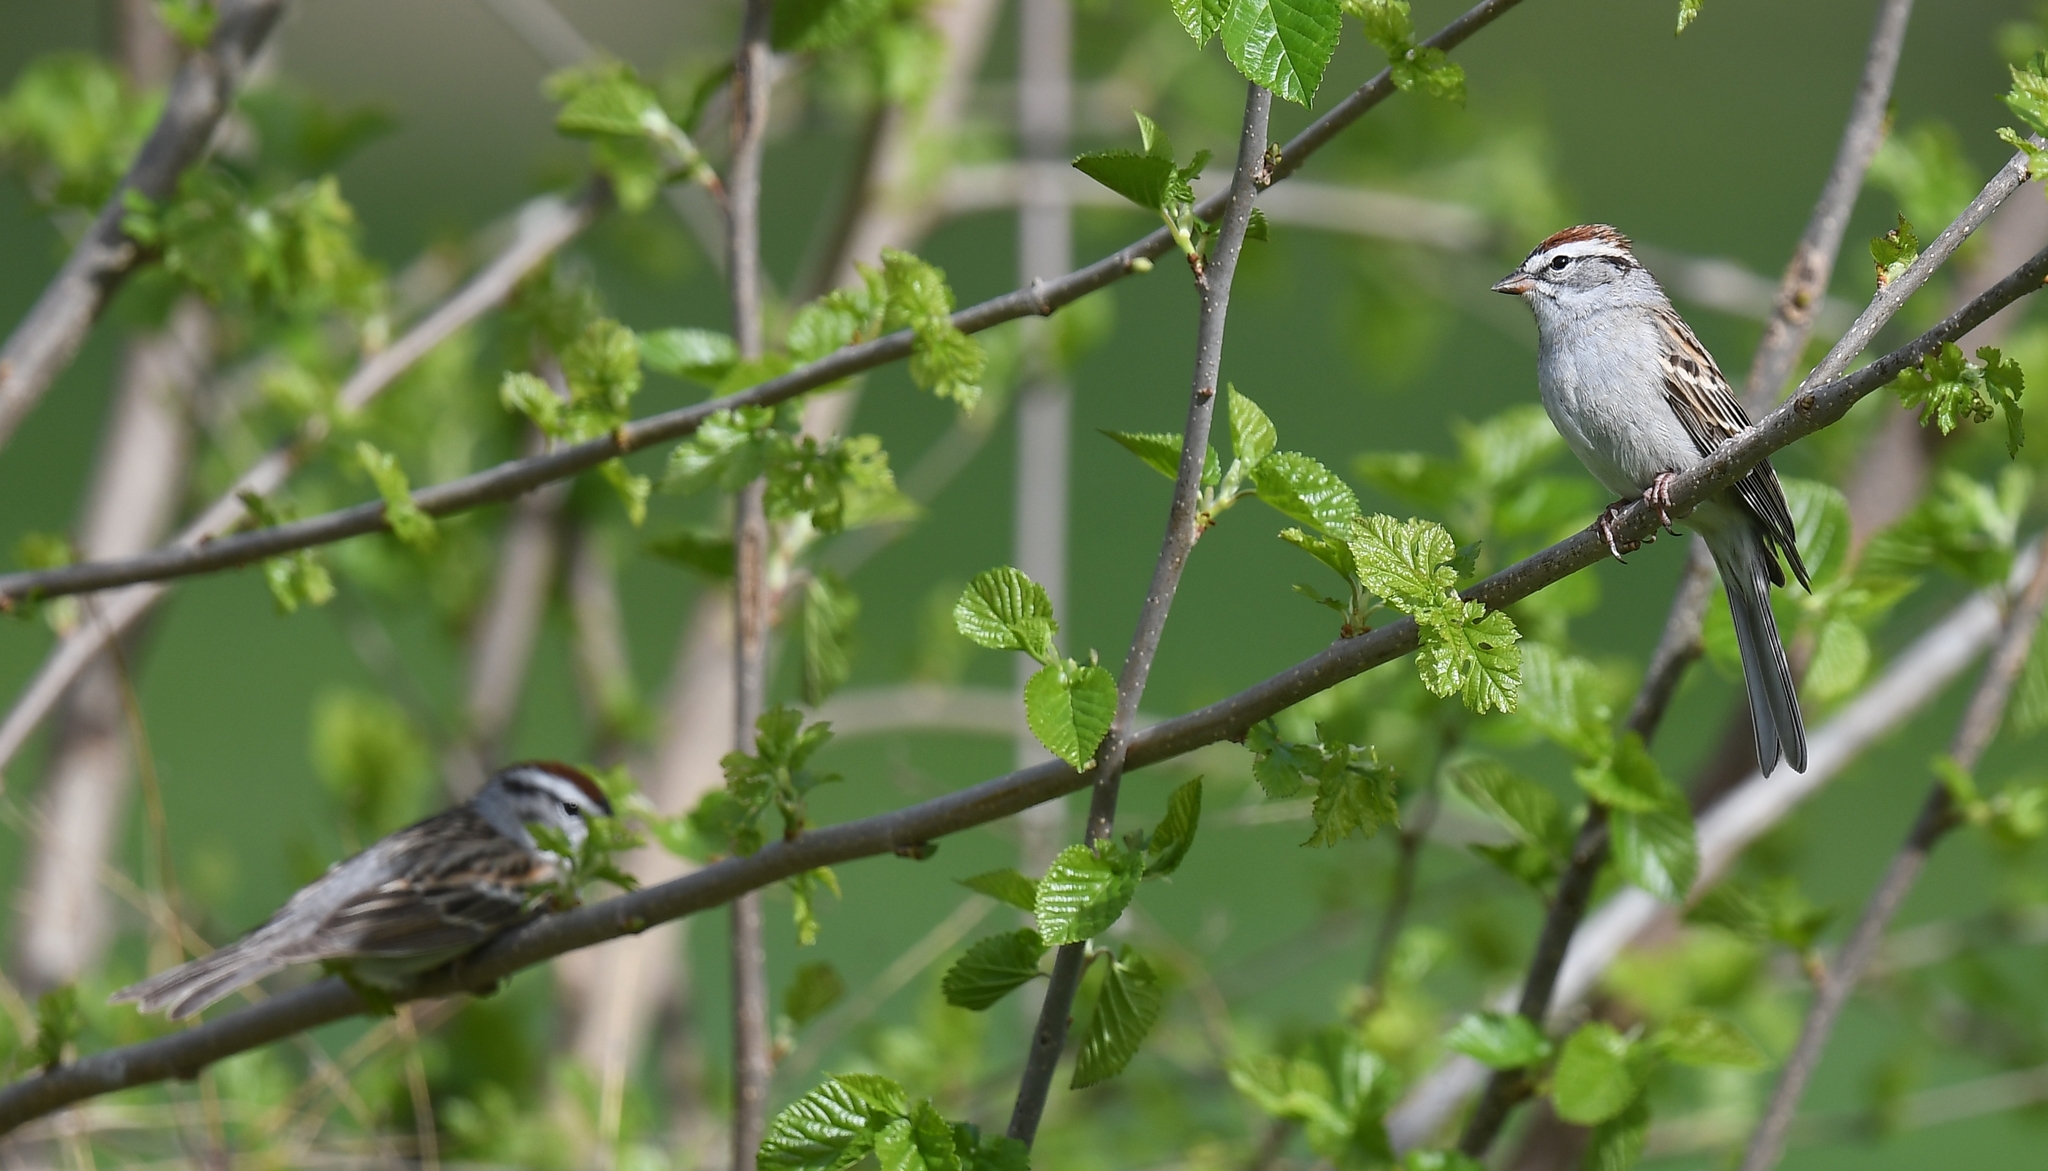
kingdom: Animalia
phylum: Chordata
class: Aves
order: Passeriformes
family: Passerellidae
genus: Spizella
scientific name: Spizella passerina
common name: Chipping sparrow
